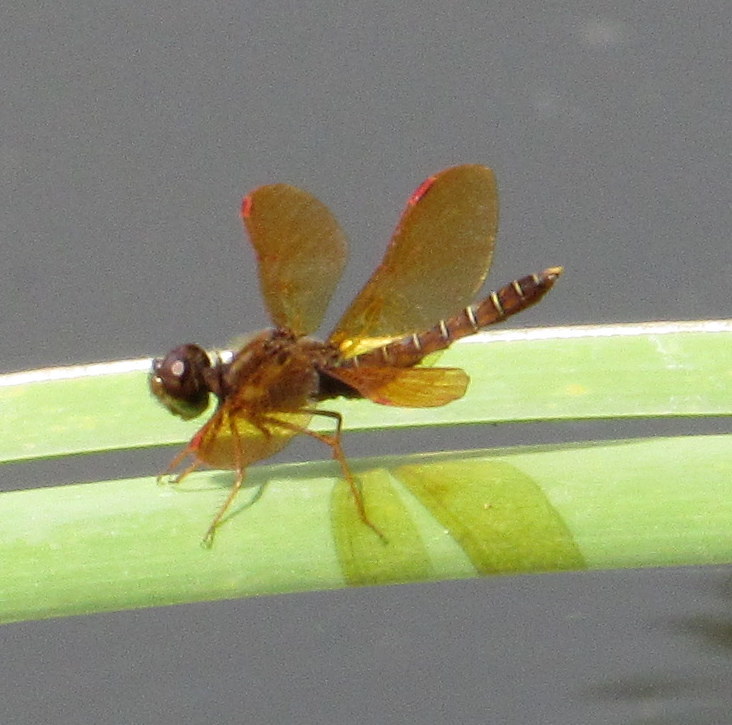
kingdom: Animalia
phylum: Arthropoda
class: Insecta
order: Odonata
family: Libellulidae
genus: Perithemis
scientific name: Perithemis tenera
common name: Eastern amberwing
